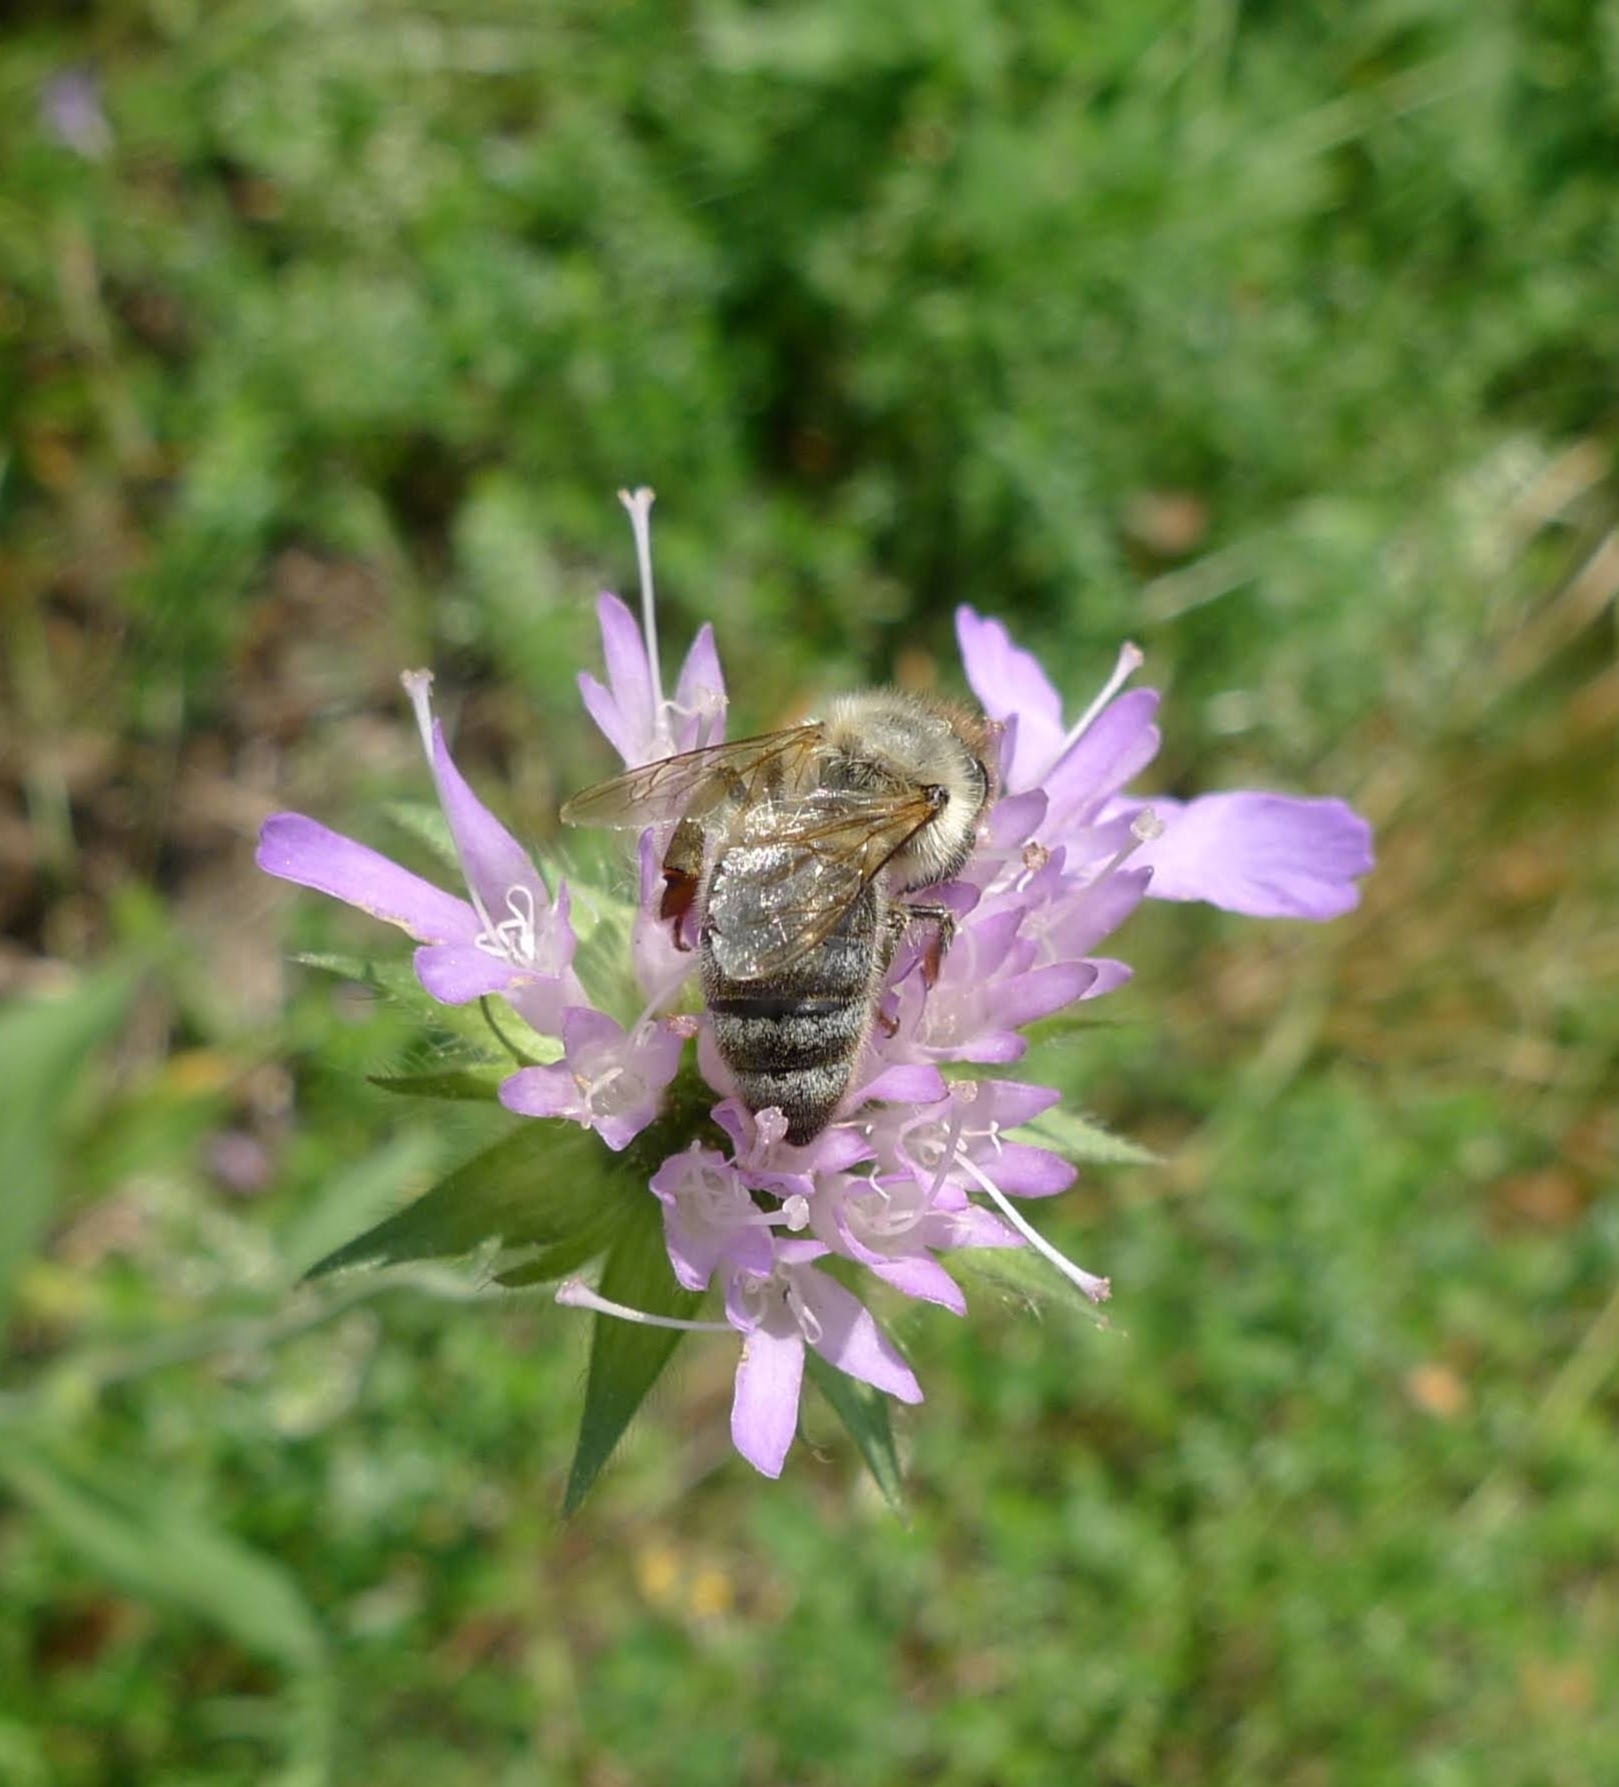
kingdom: Animalia
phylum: Arthropoda
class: Insecta
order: Hymenoptera
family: Apidae
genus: Apis
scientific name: Apis mellifera
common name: Honey bee
